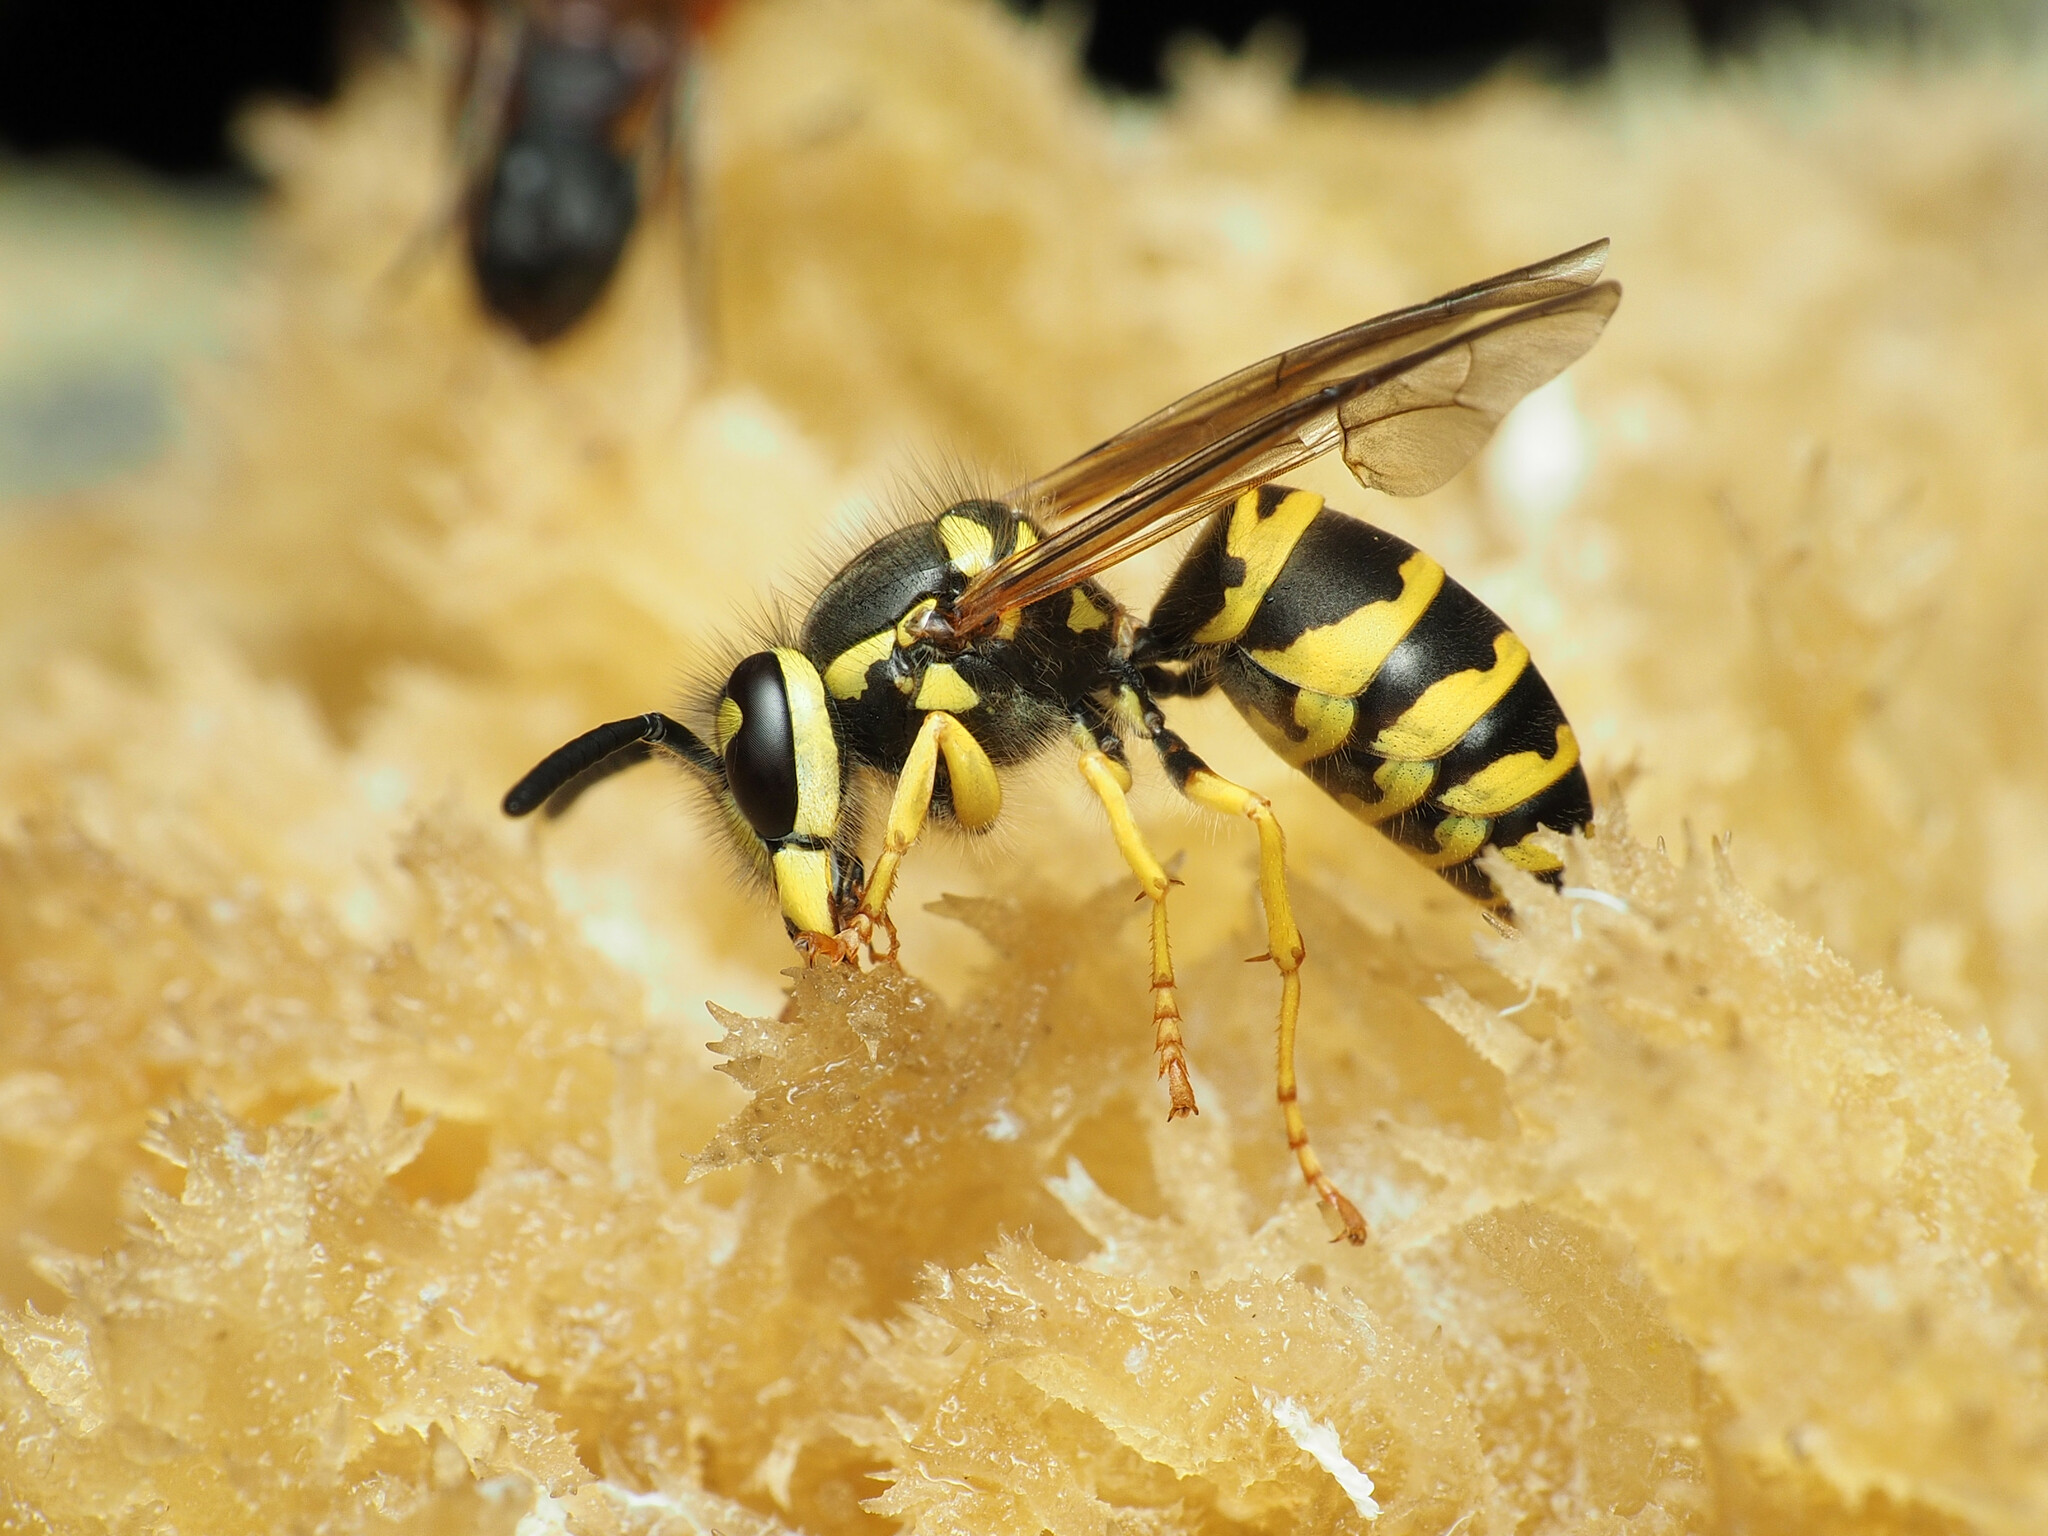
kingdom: Animalia
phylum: Arthropoda
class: Insecta
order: Hymenoptera
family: Vespidae
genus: Vespula
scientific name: Vespula maculifrons
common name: Eastern yellowjacket
